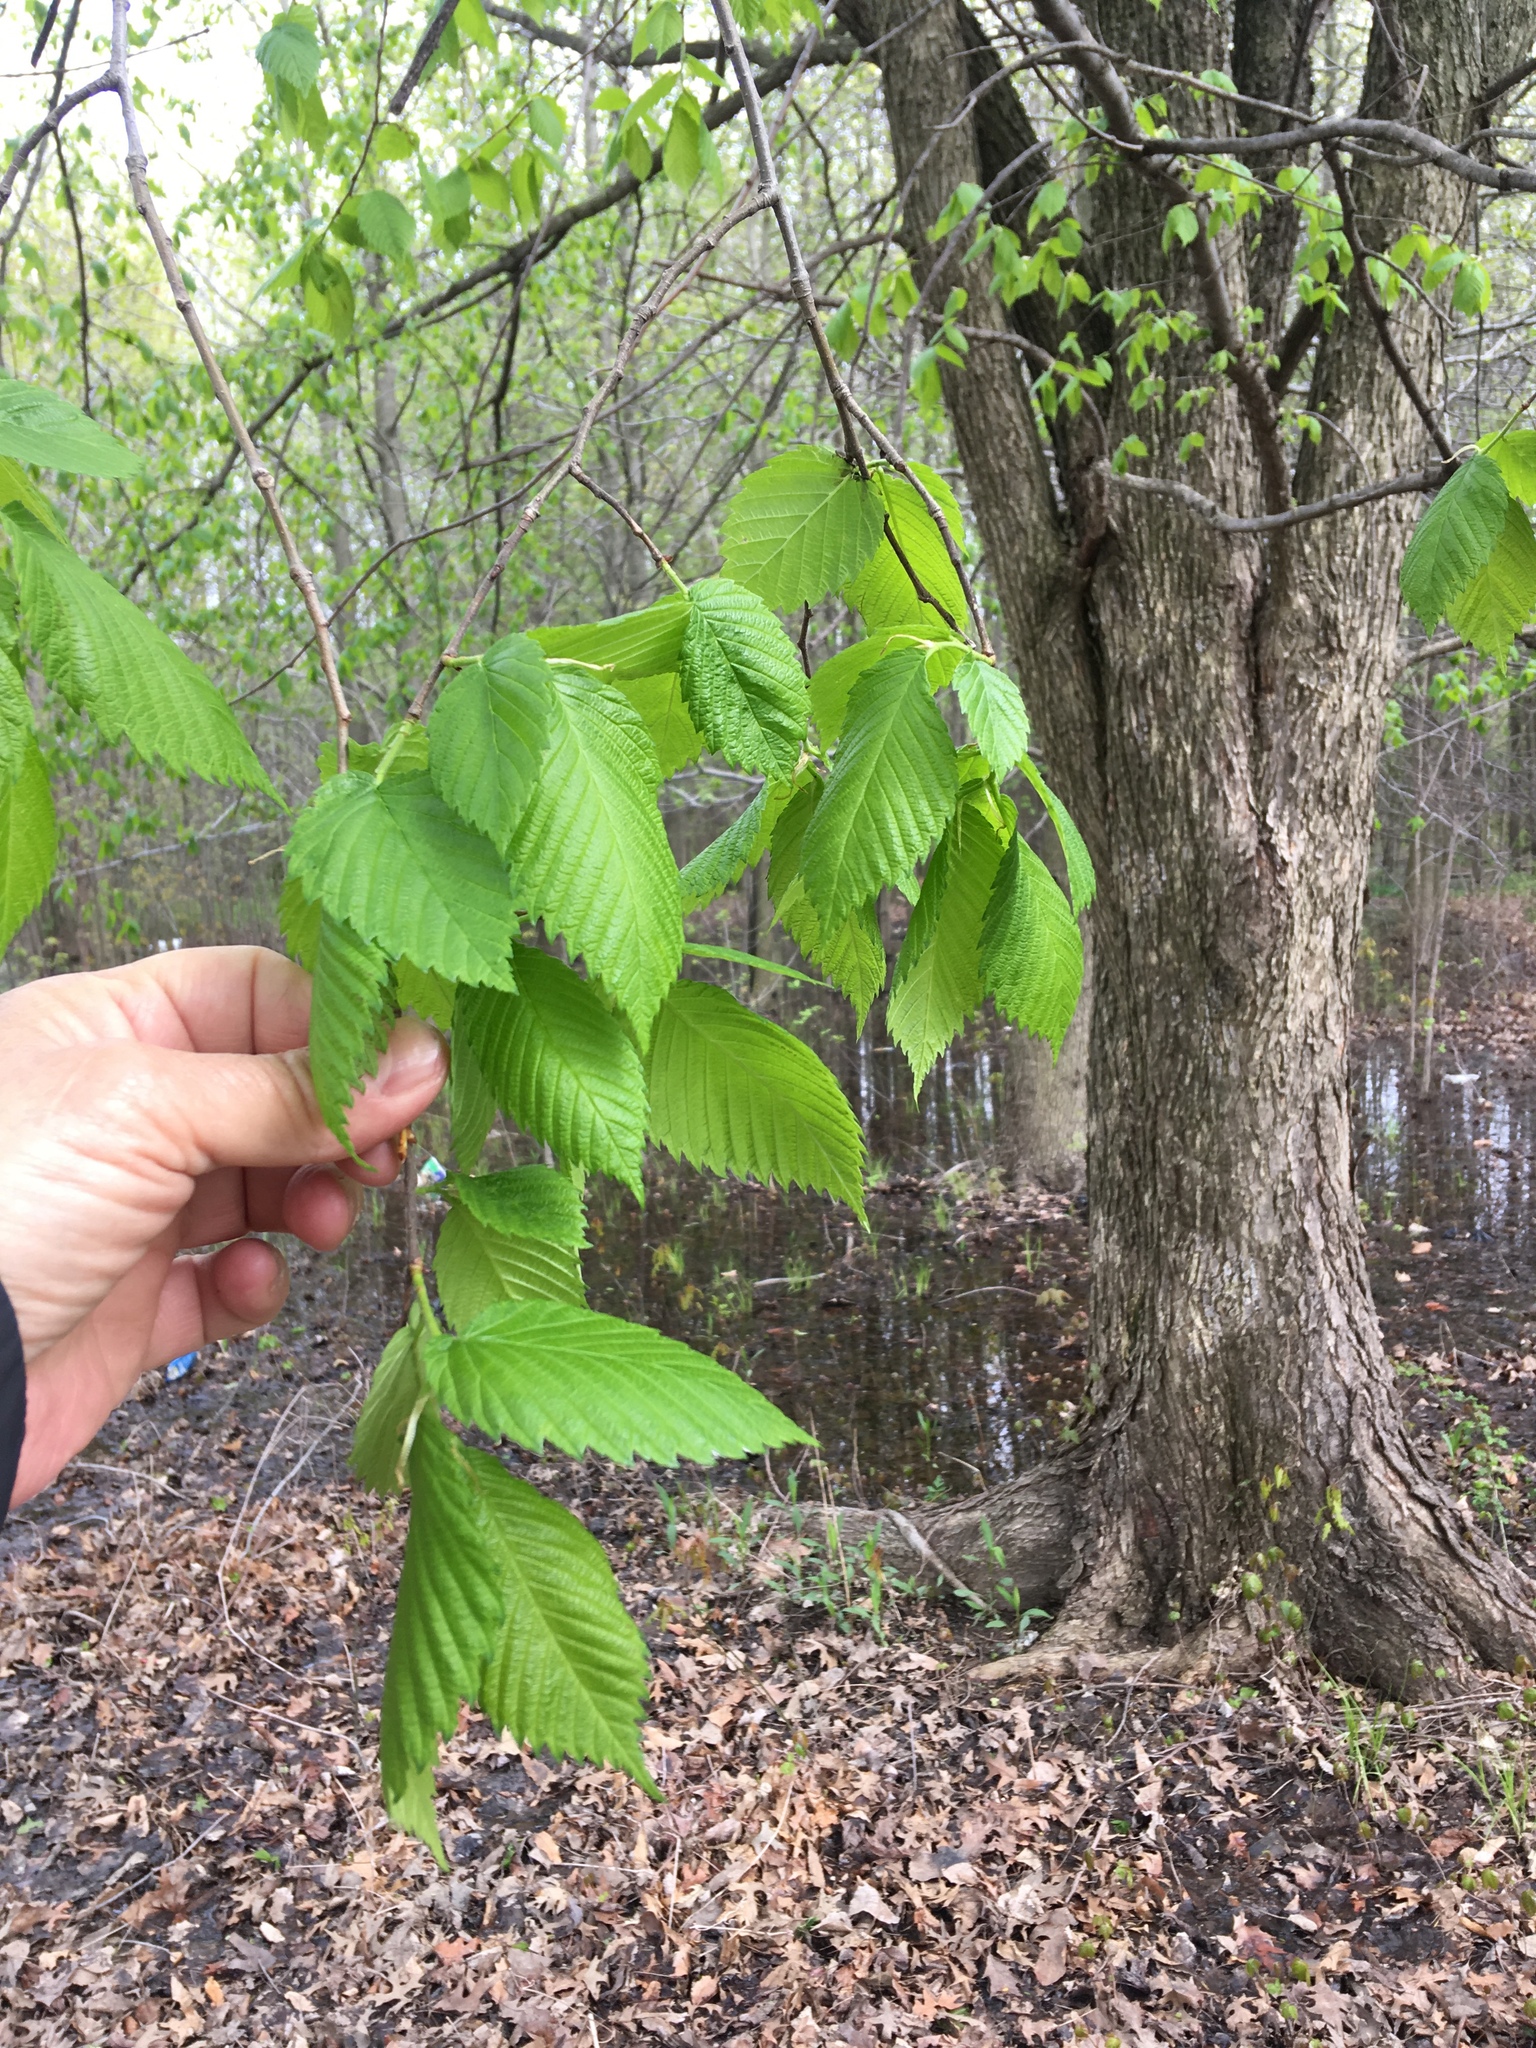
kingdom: Plantae
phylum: Tracheophyta
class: Magnoliopsida
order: Rosales
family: Ulmaceae
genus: Ulmus
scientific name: Ulmus americana
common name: American elm
